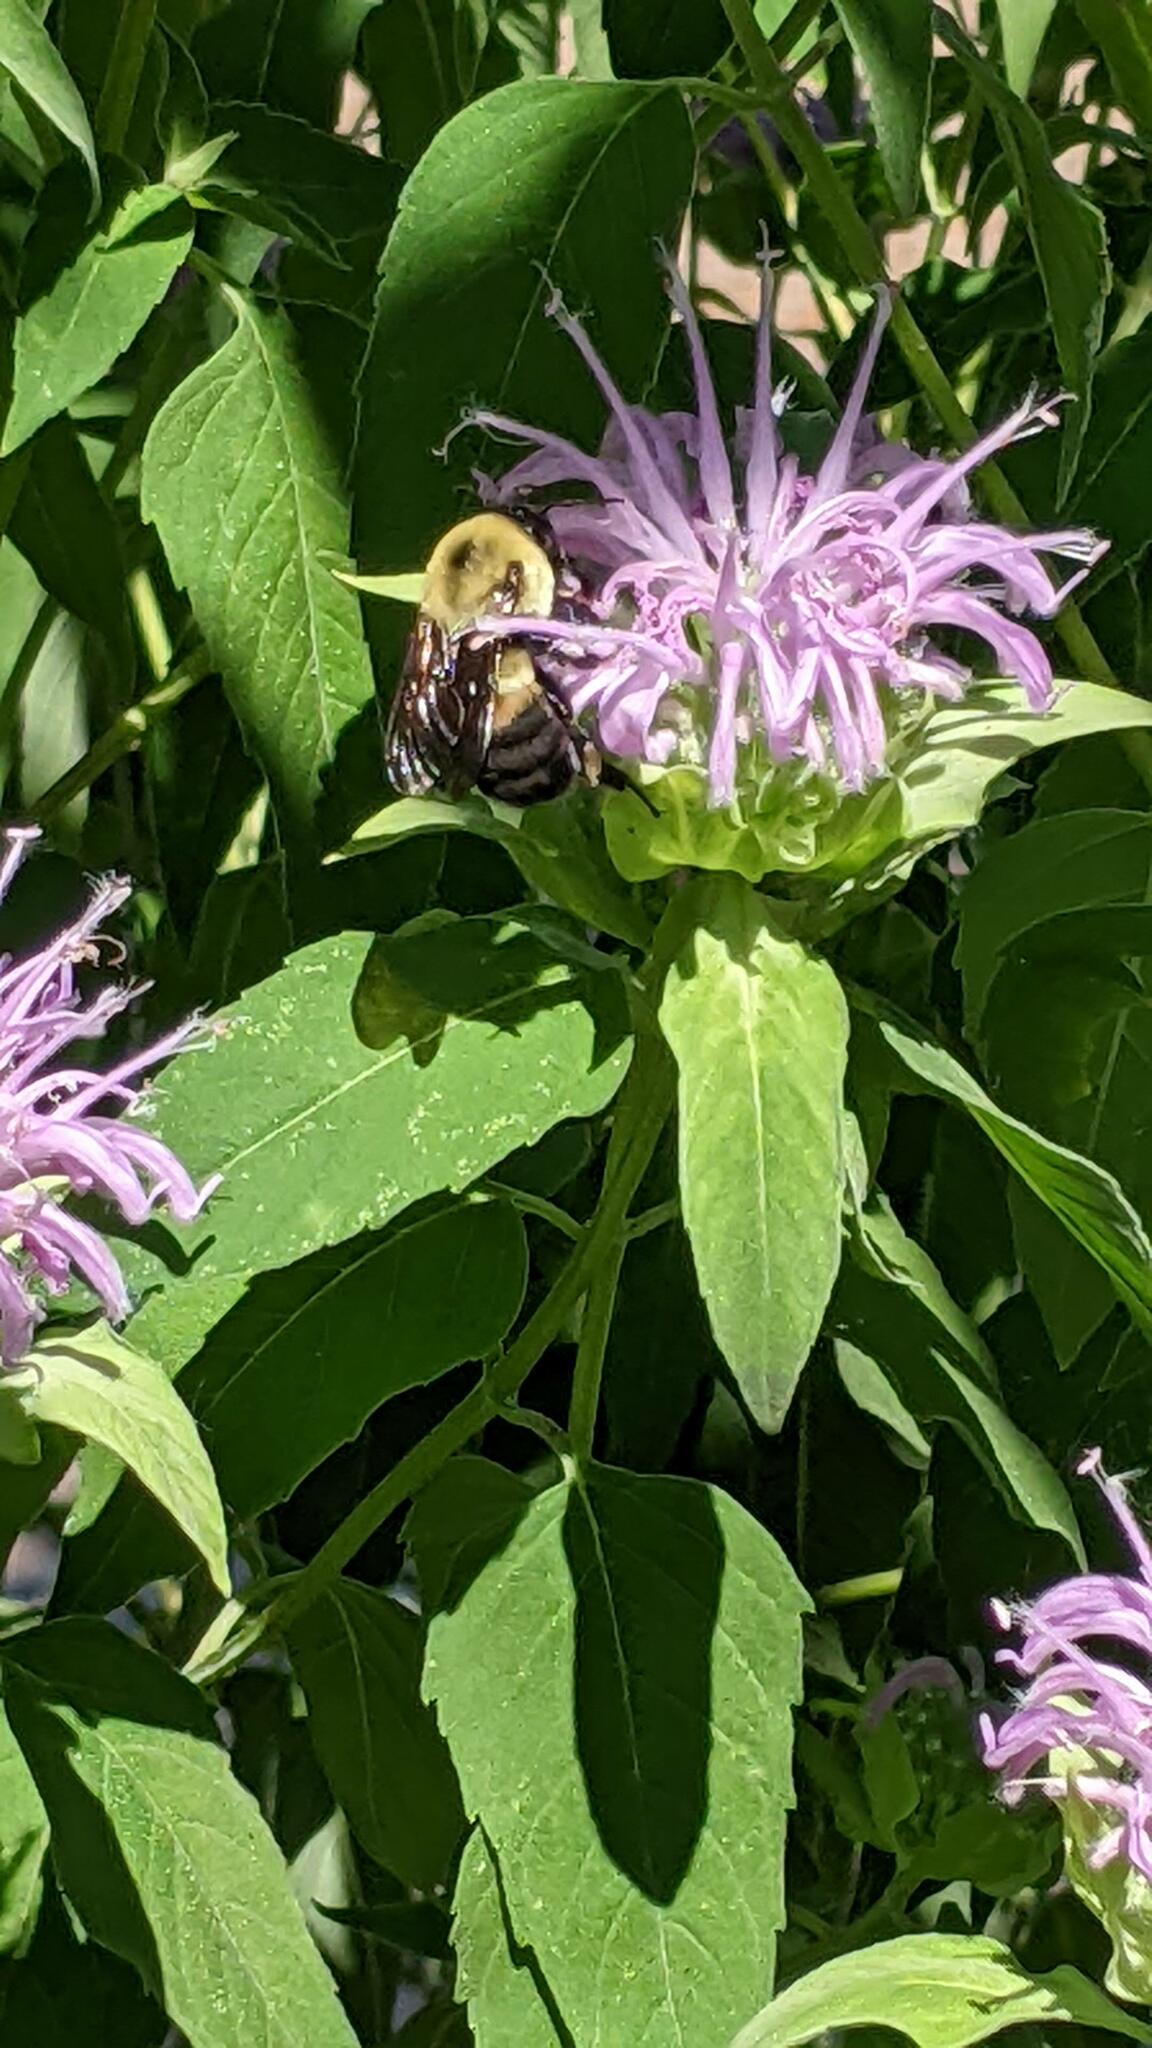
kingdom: Animalia
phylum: Arthropoda
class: Insecta
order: Hymenoptera
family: Apidae
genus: Bombus
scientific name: Bombus griseocollis
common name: Brown-belted bumble bee
